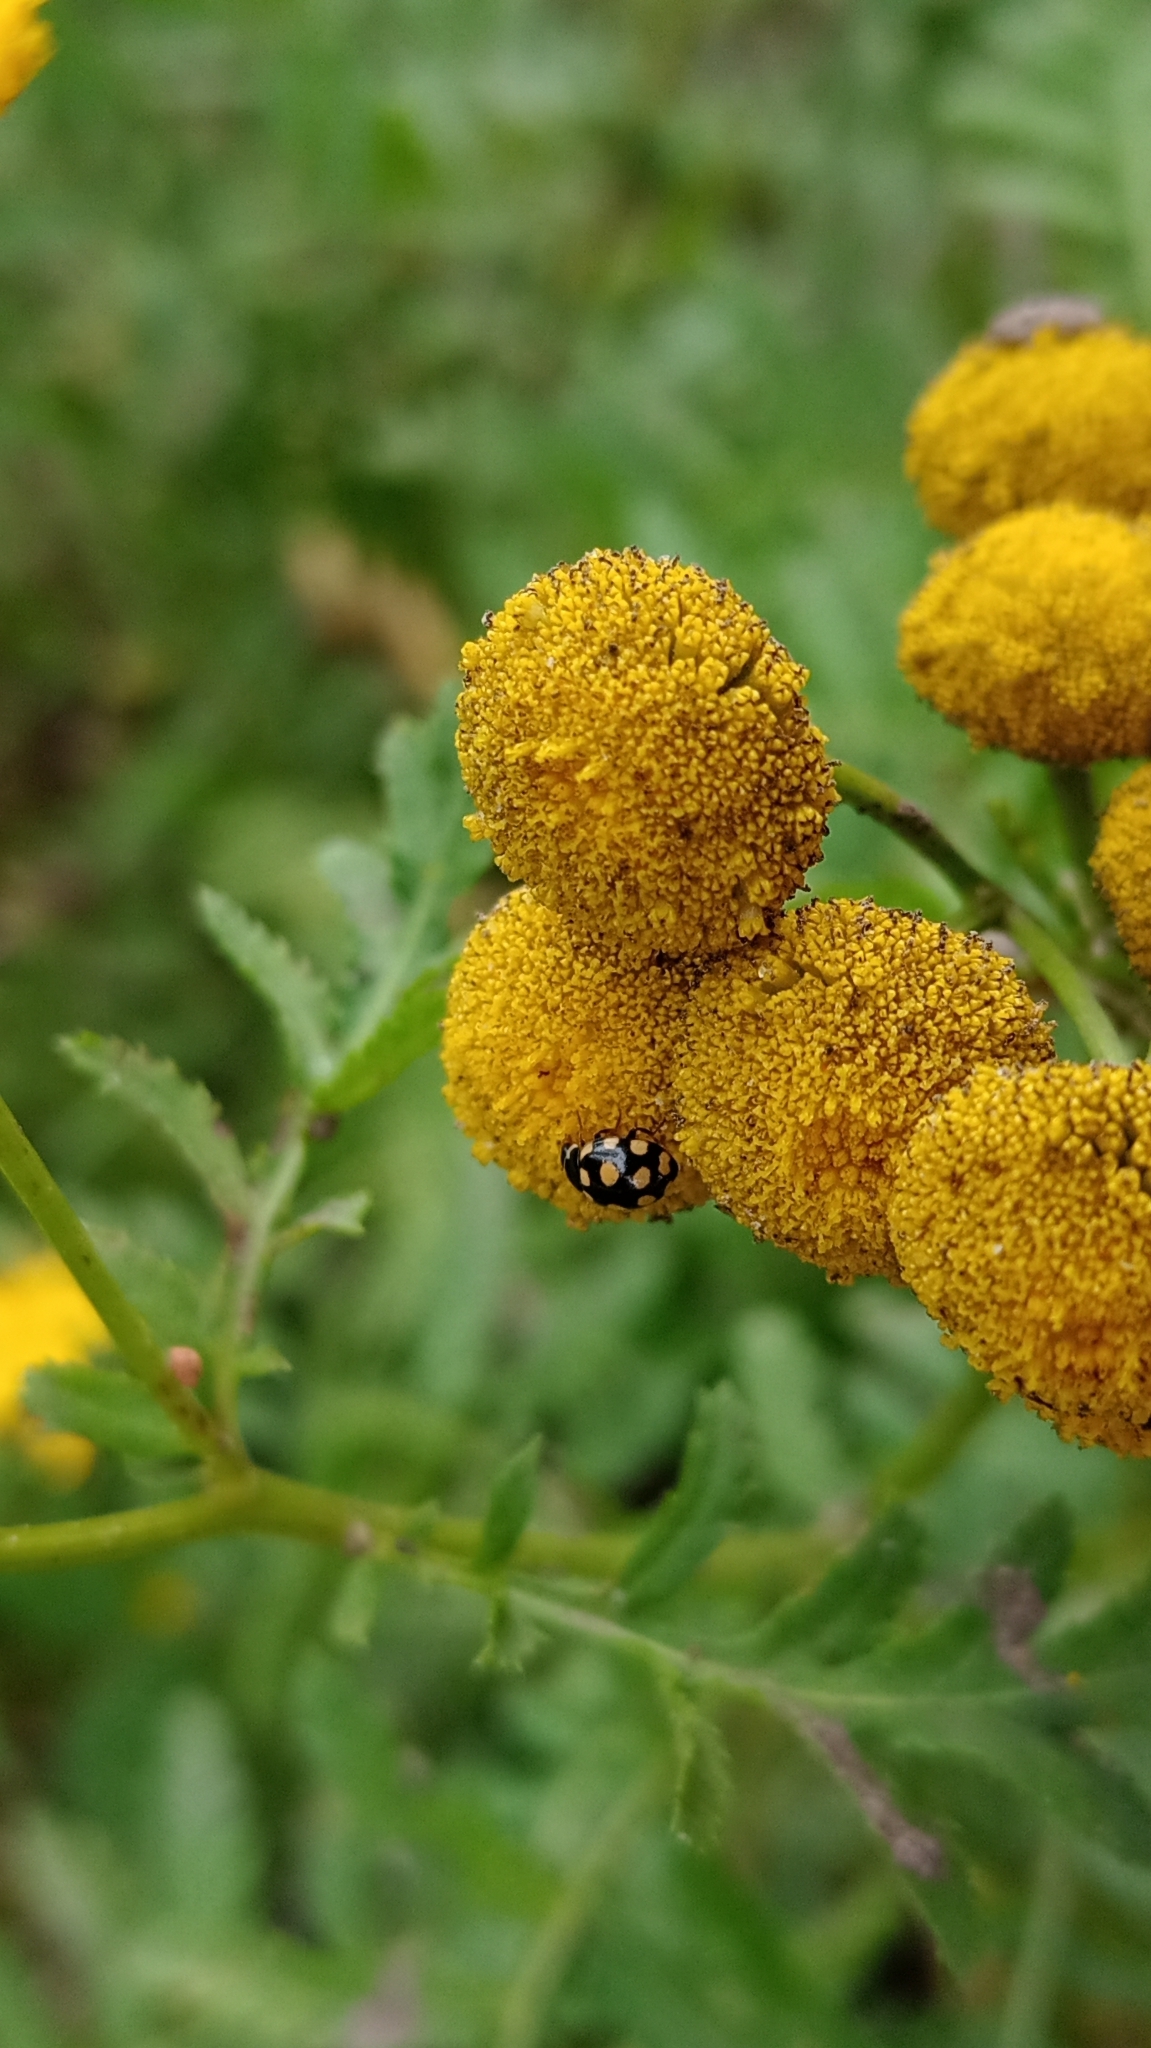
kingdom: Animalia
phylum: Arthropoda
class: Insecta
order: Coleoptera
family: Coccinellidae
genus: Coccinula
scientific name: Coccinula quatuordecimpustulata
